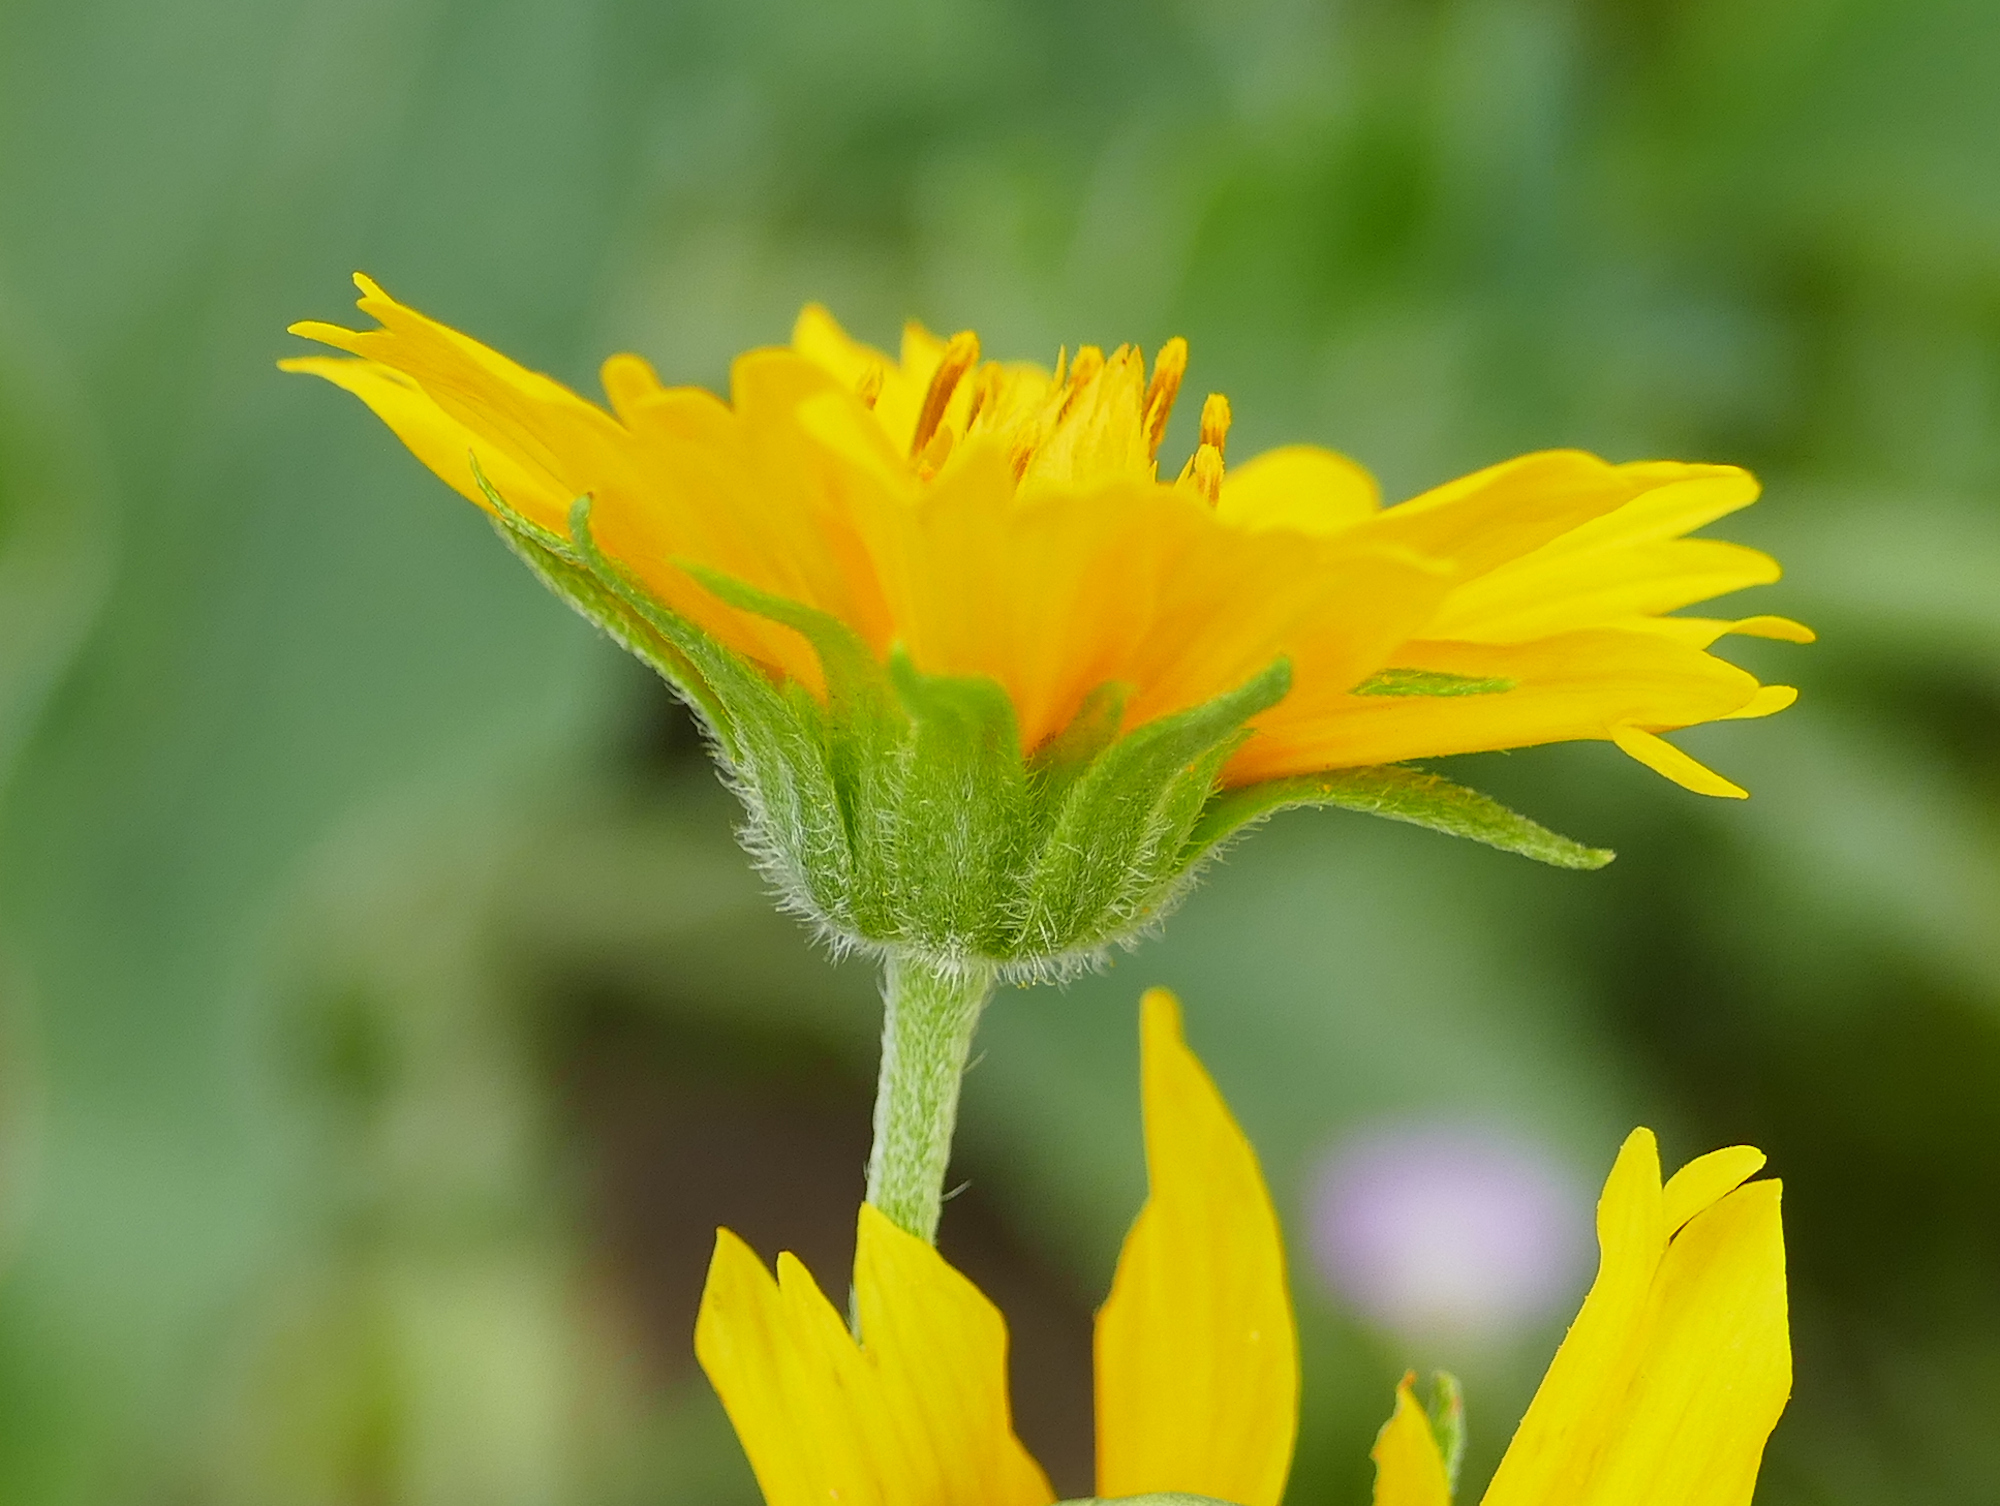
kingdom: Plantae
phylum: Tracheophyta
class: Magnoliopsida
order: Asterales
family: Asteraceae
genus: Verbesina
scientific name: Verbesina encelioides
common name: Golden crownbeard
